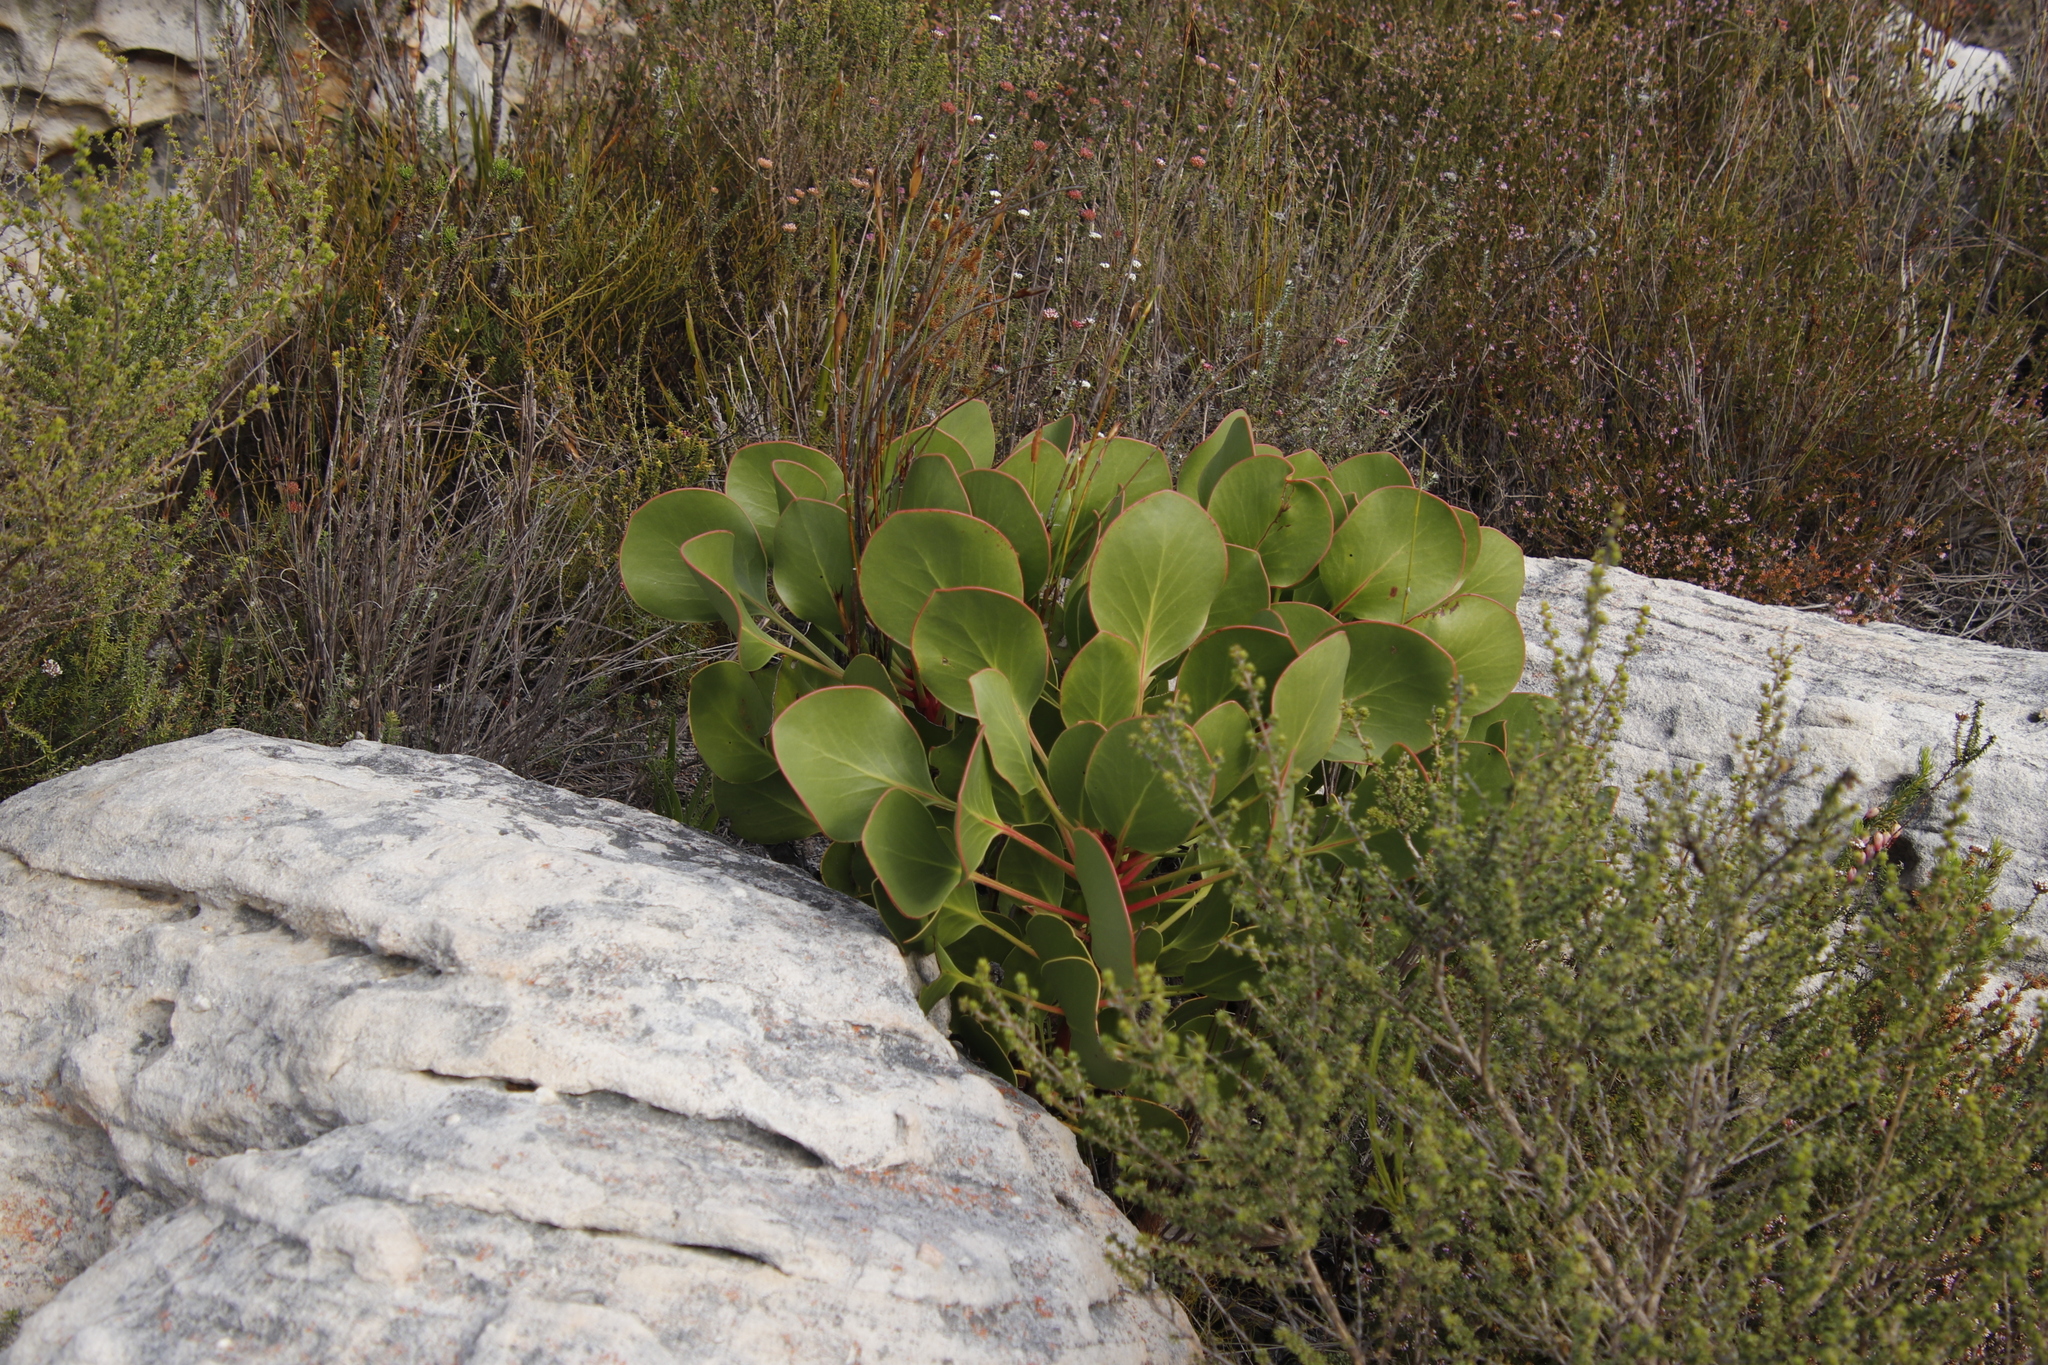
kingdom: Plantae
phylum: Tracheophyta
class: Magnoliopsida
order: Proteales
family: Proteaceae
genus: Protea
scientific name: Protea cynaroides
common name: King protea
